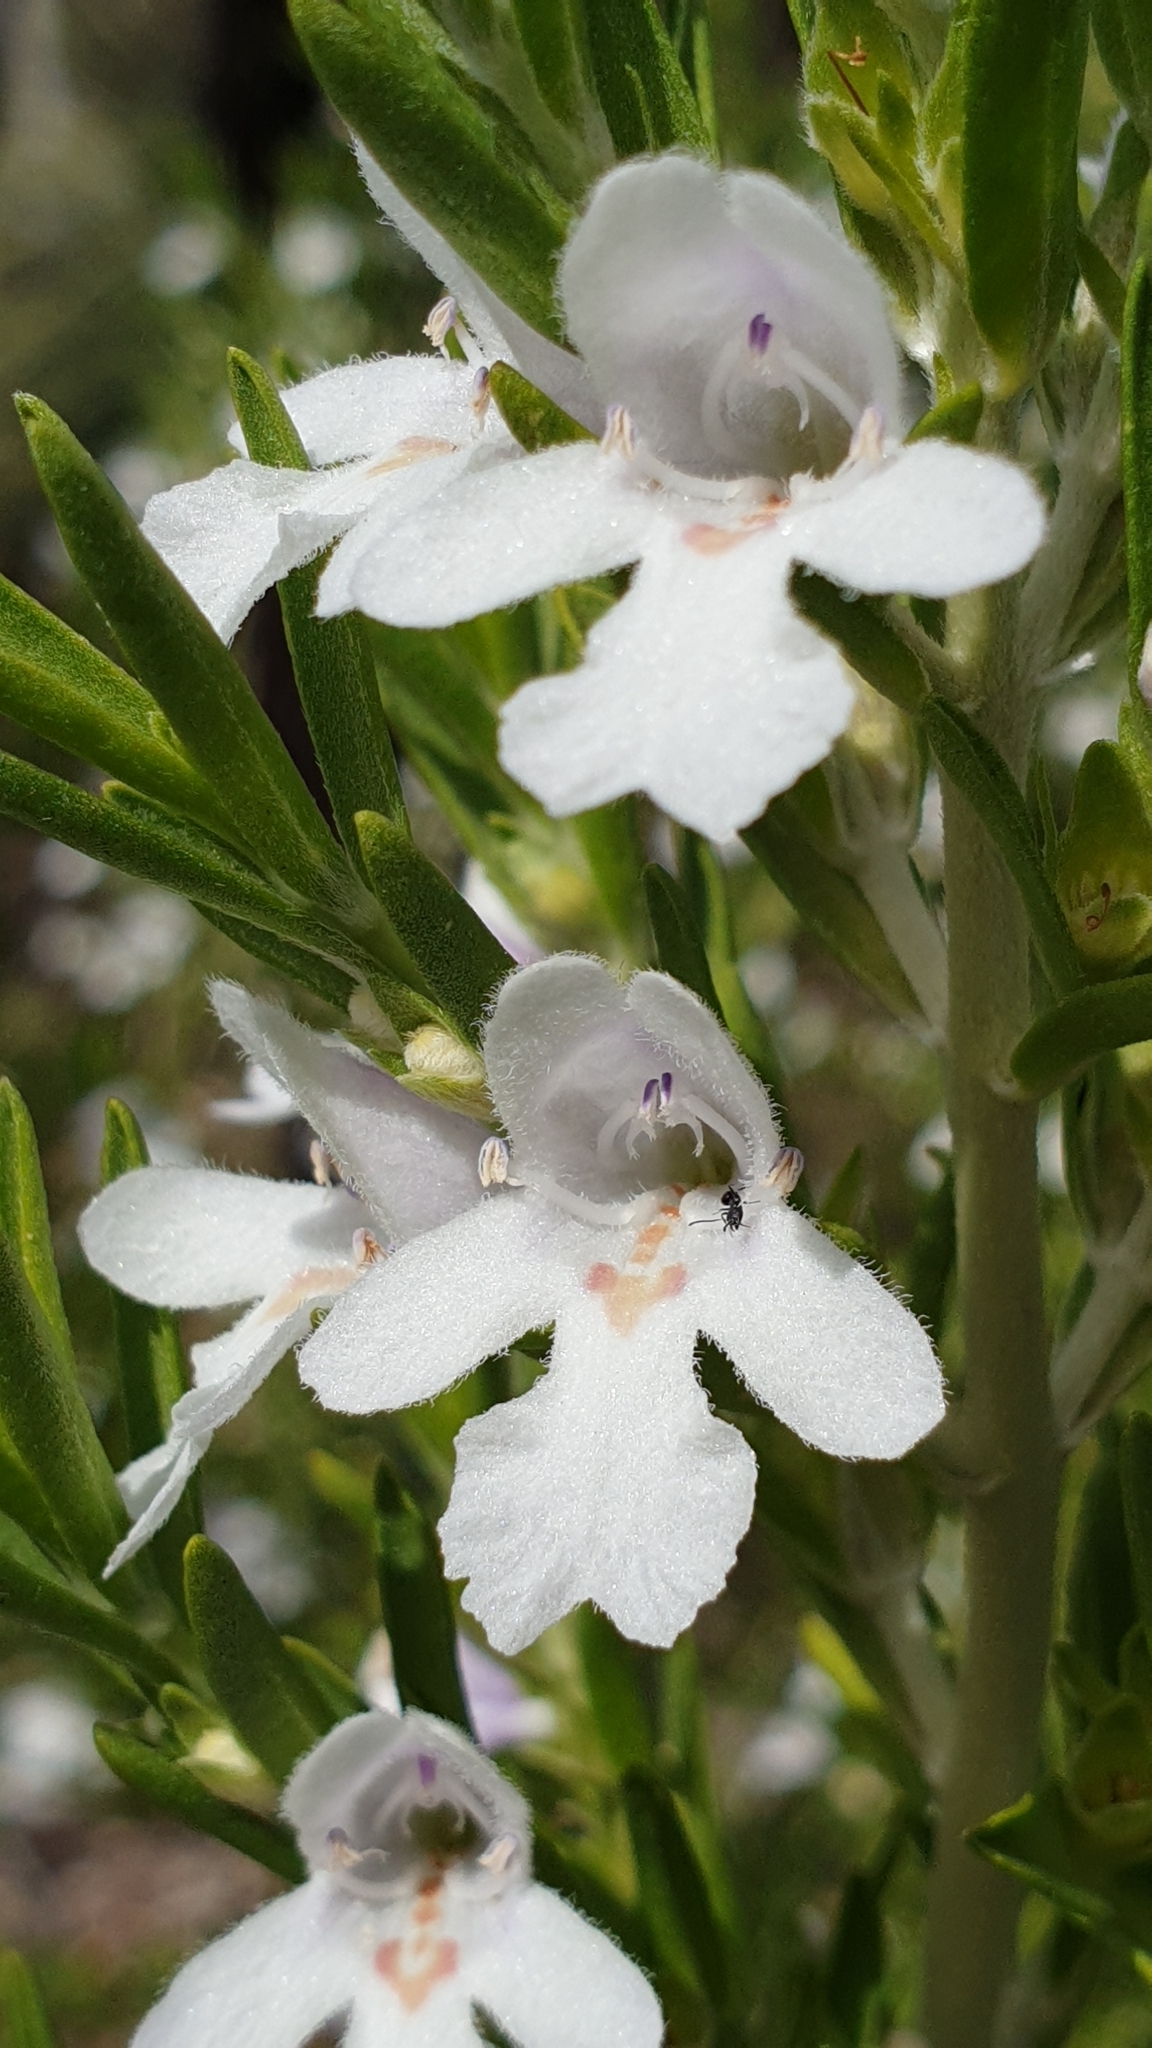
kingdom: Plantae
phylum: Tracheophyta
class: Magnoliopsida
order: Lamiales
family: Lamiaceae
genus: Prostanthera
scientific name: Prostanthera behriana
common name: Downy mintbush
